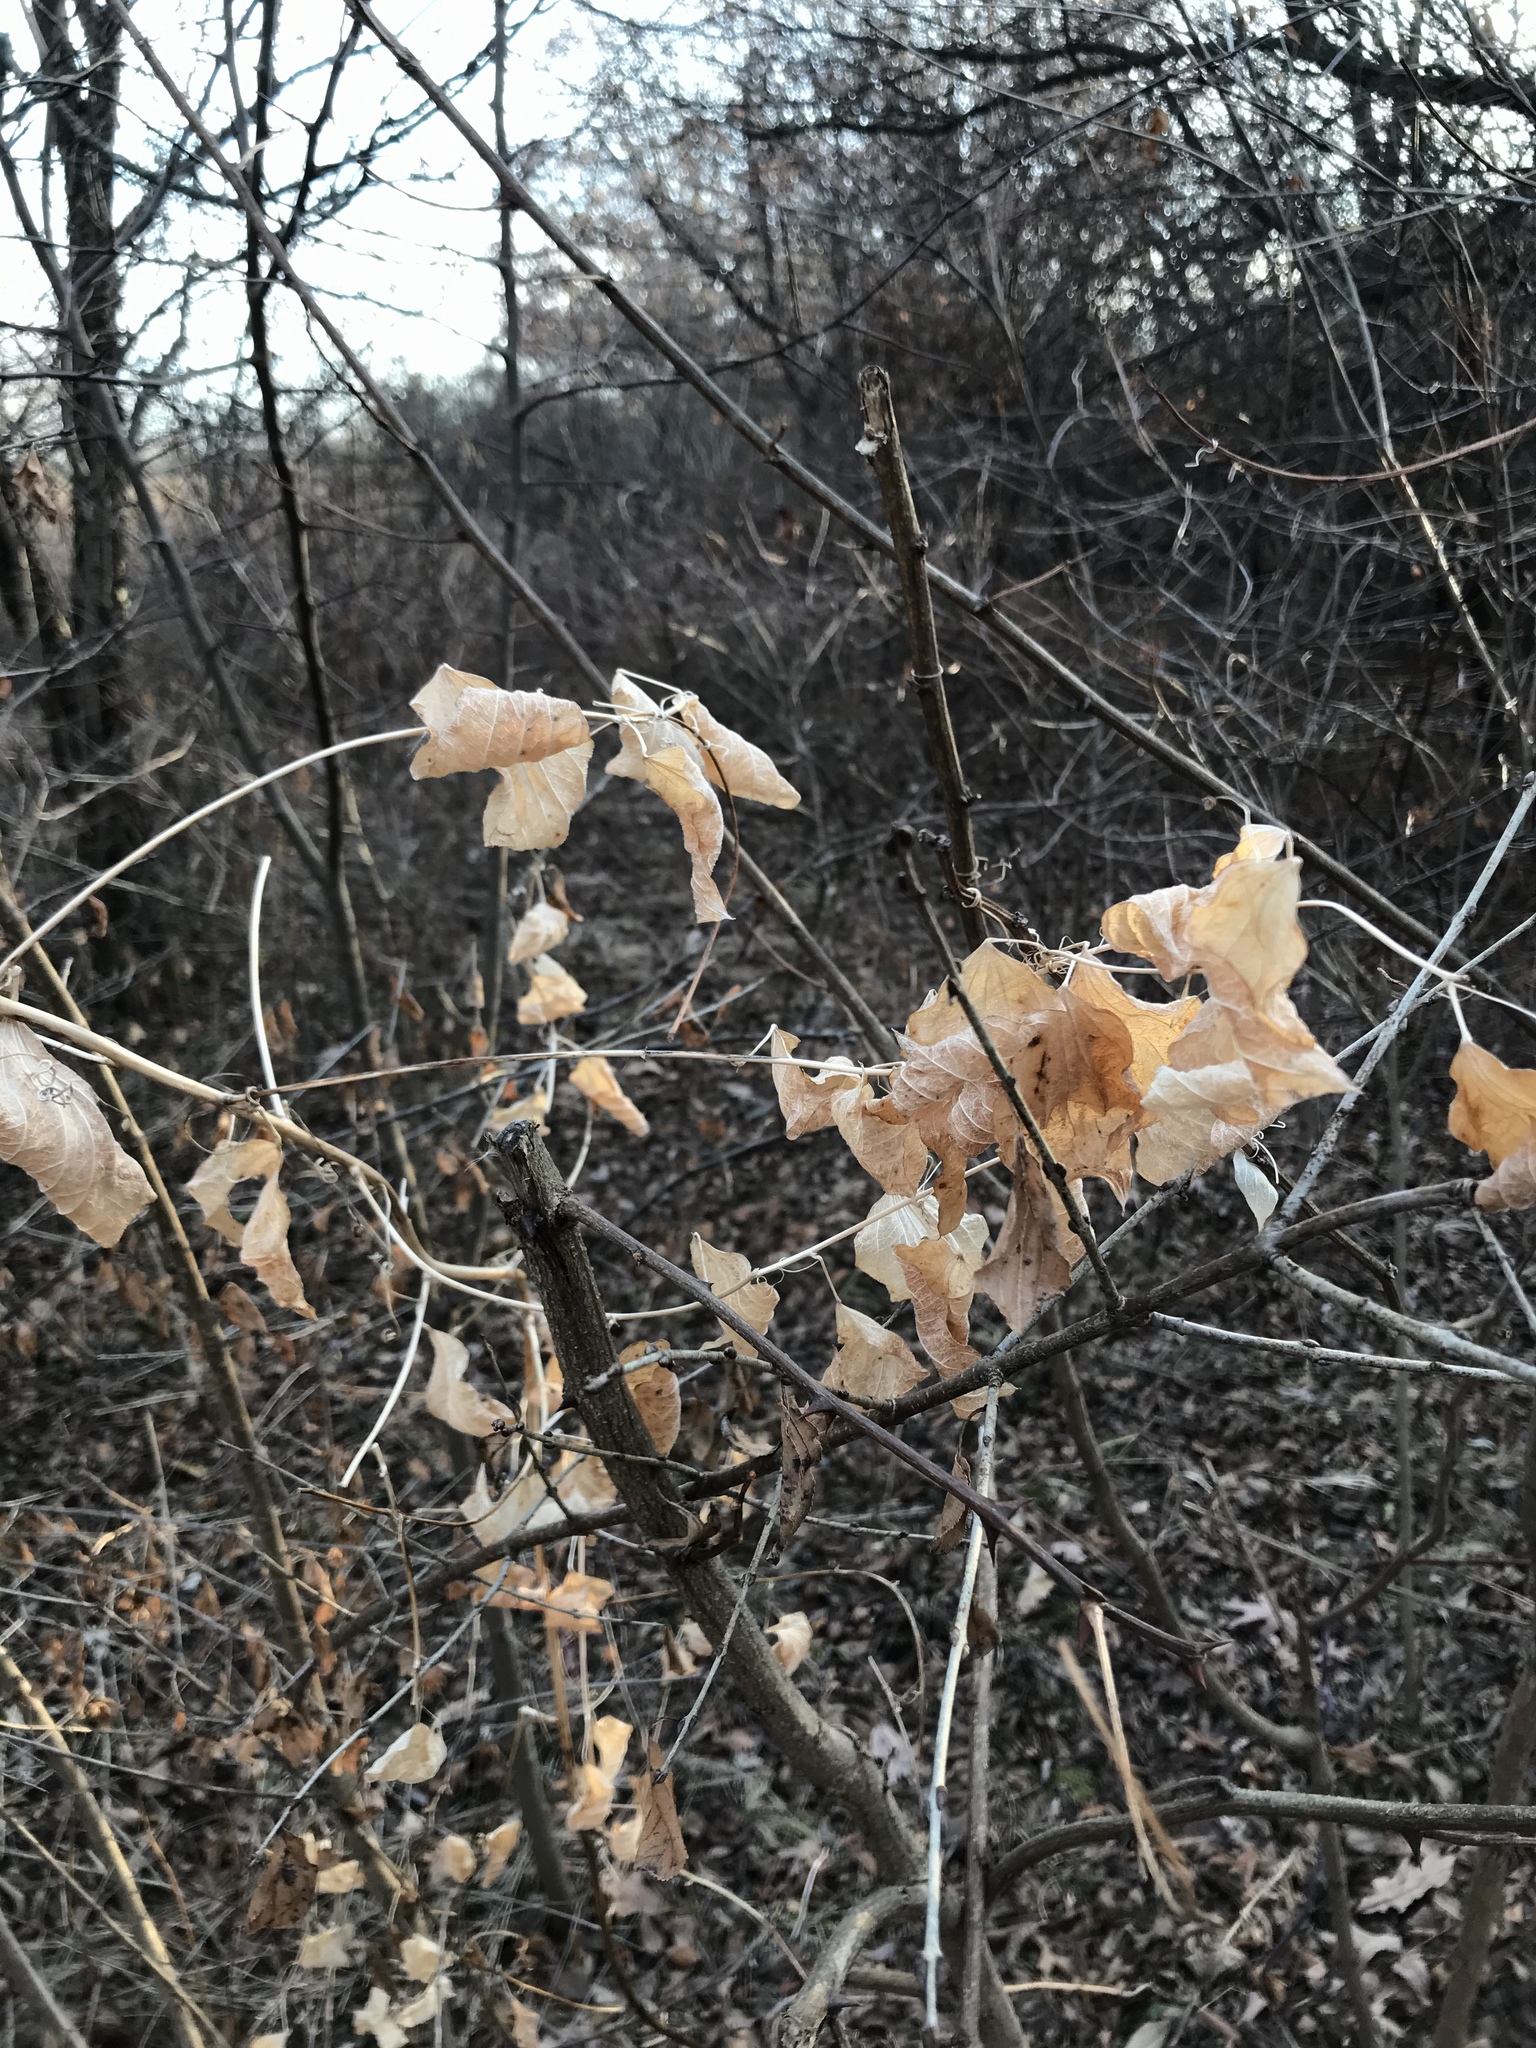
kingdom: Plantae
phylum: Tracheophyta
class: Liliopsida
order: Liliales
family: Smilacaceae
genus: Smilax
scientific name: Smilax lasioneura
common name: Blue ridge carrionflower
